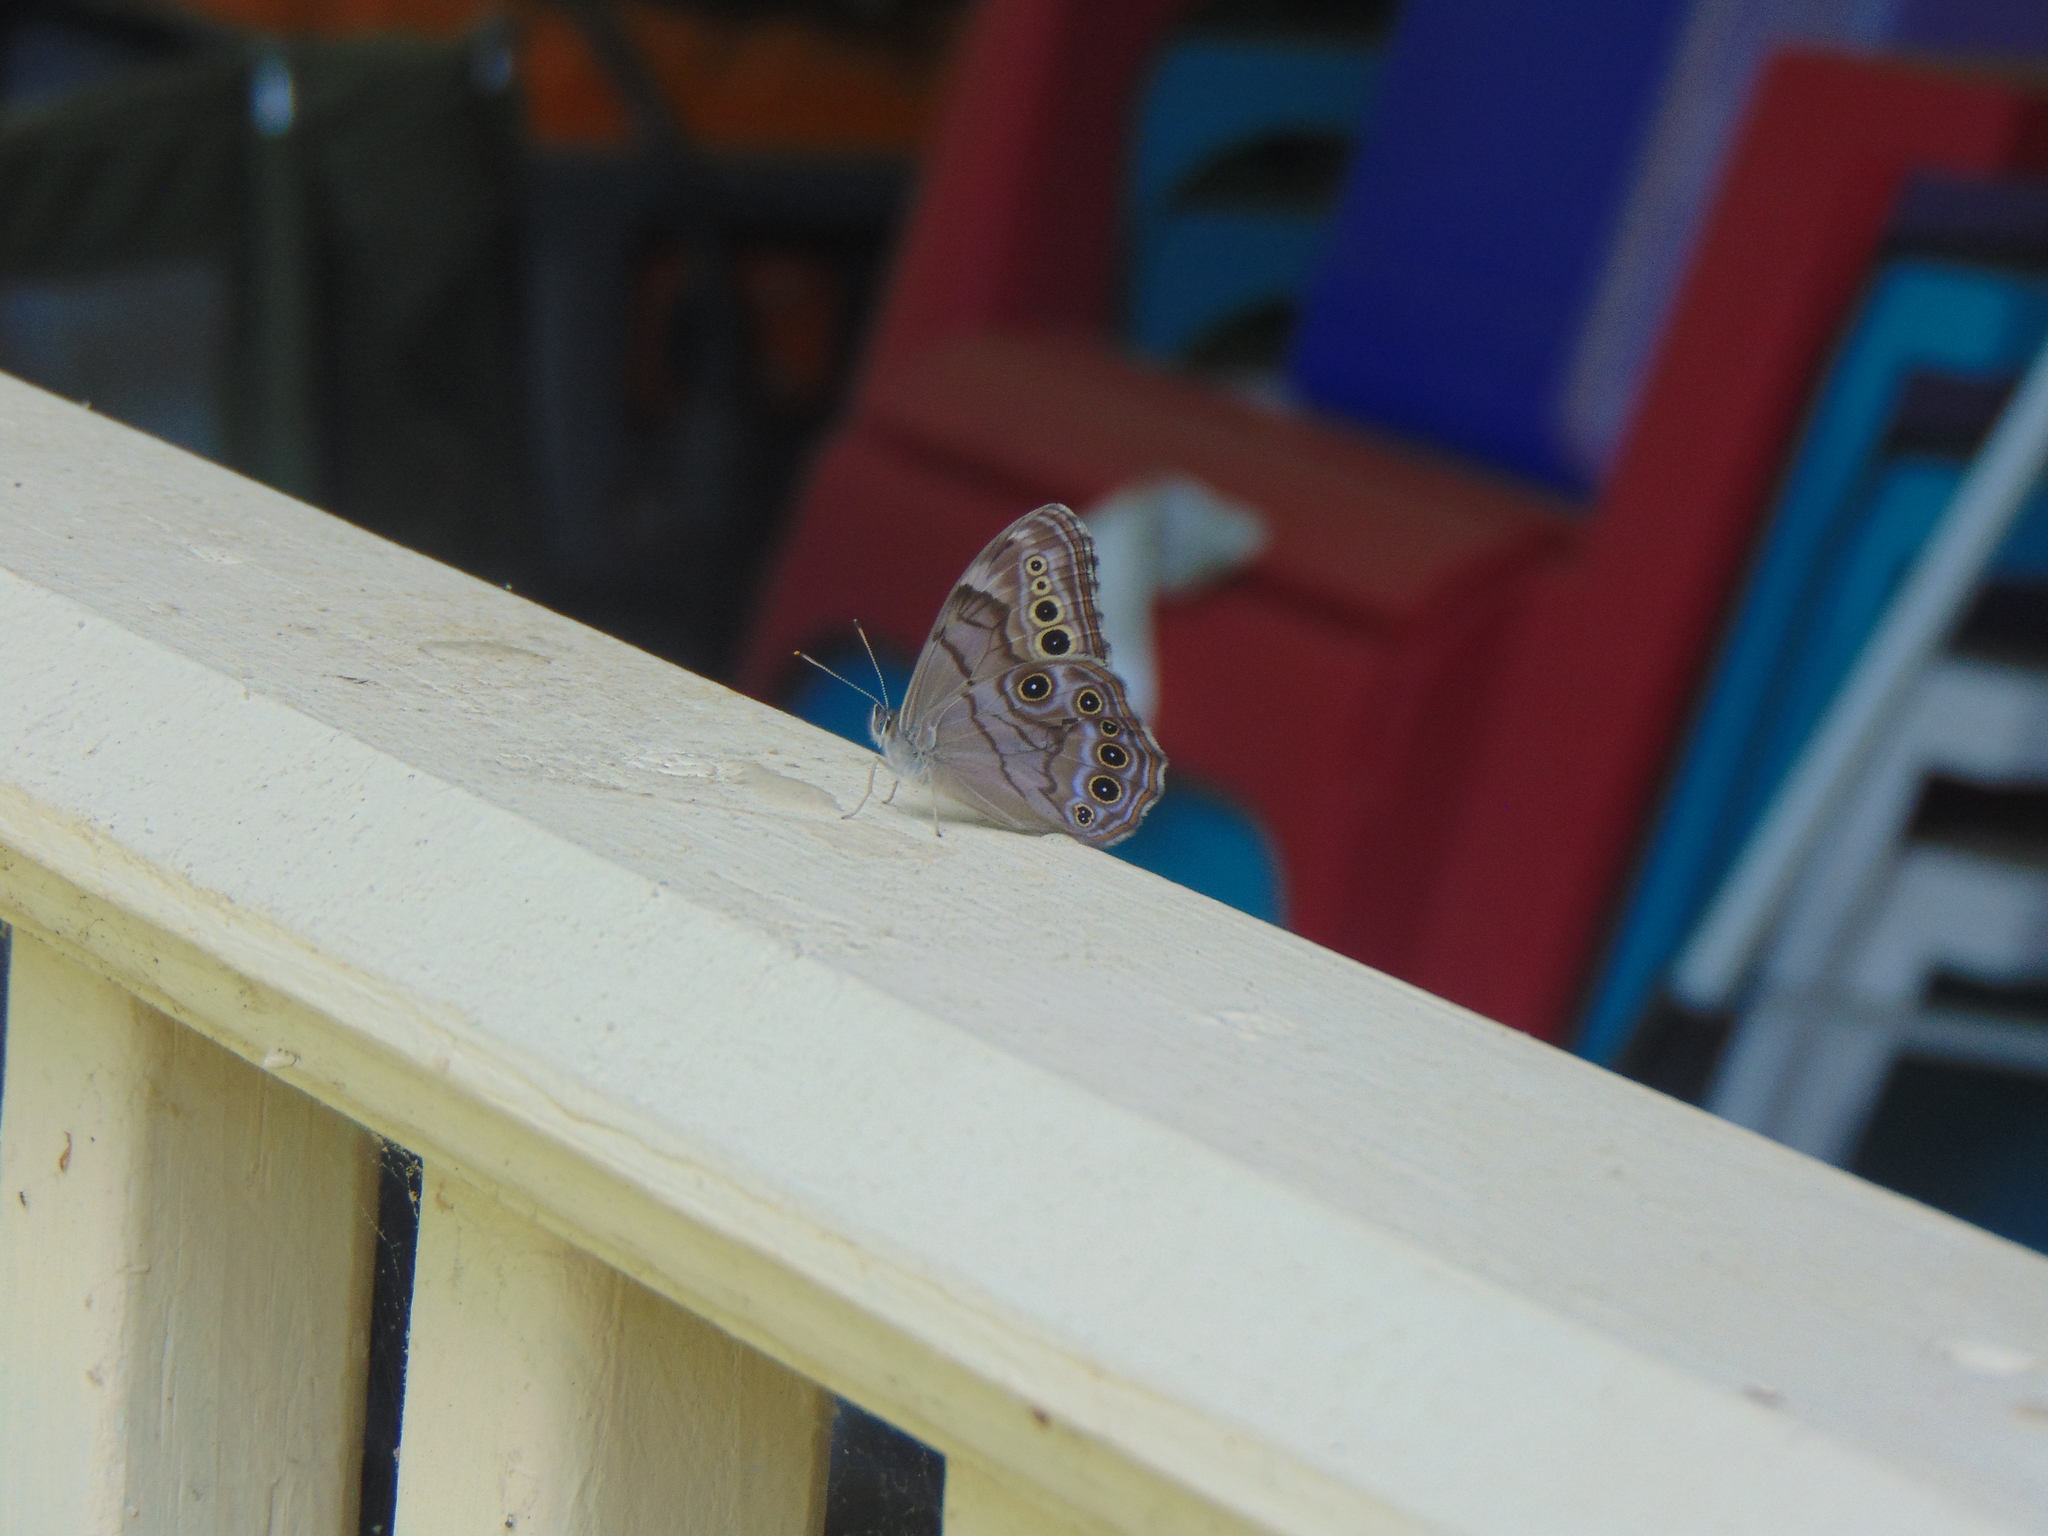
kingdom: Animalia
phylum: Arthropoda
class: Insecta
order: Lepidoptera
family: Nymphalidae
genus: Lethe
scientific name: Lethe anthedon
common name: Northern pearly-eye
